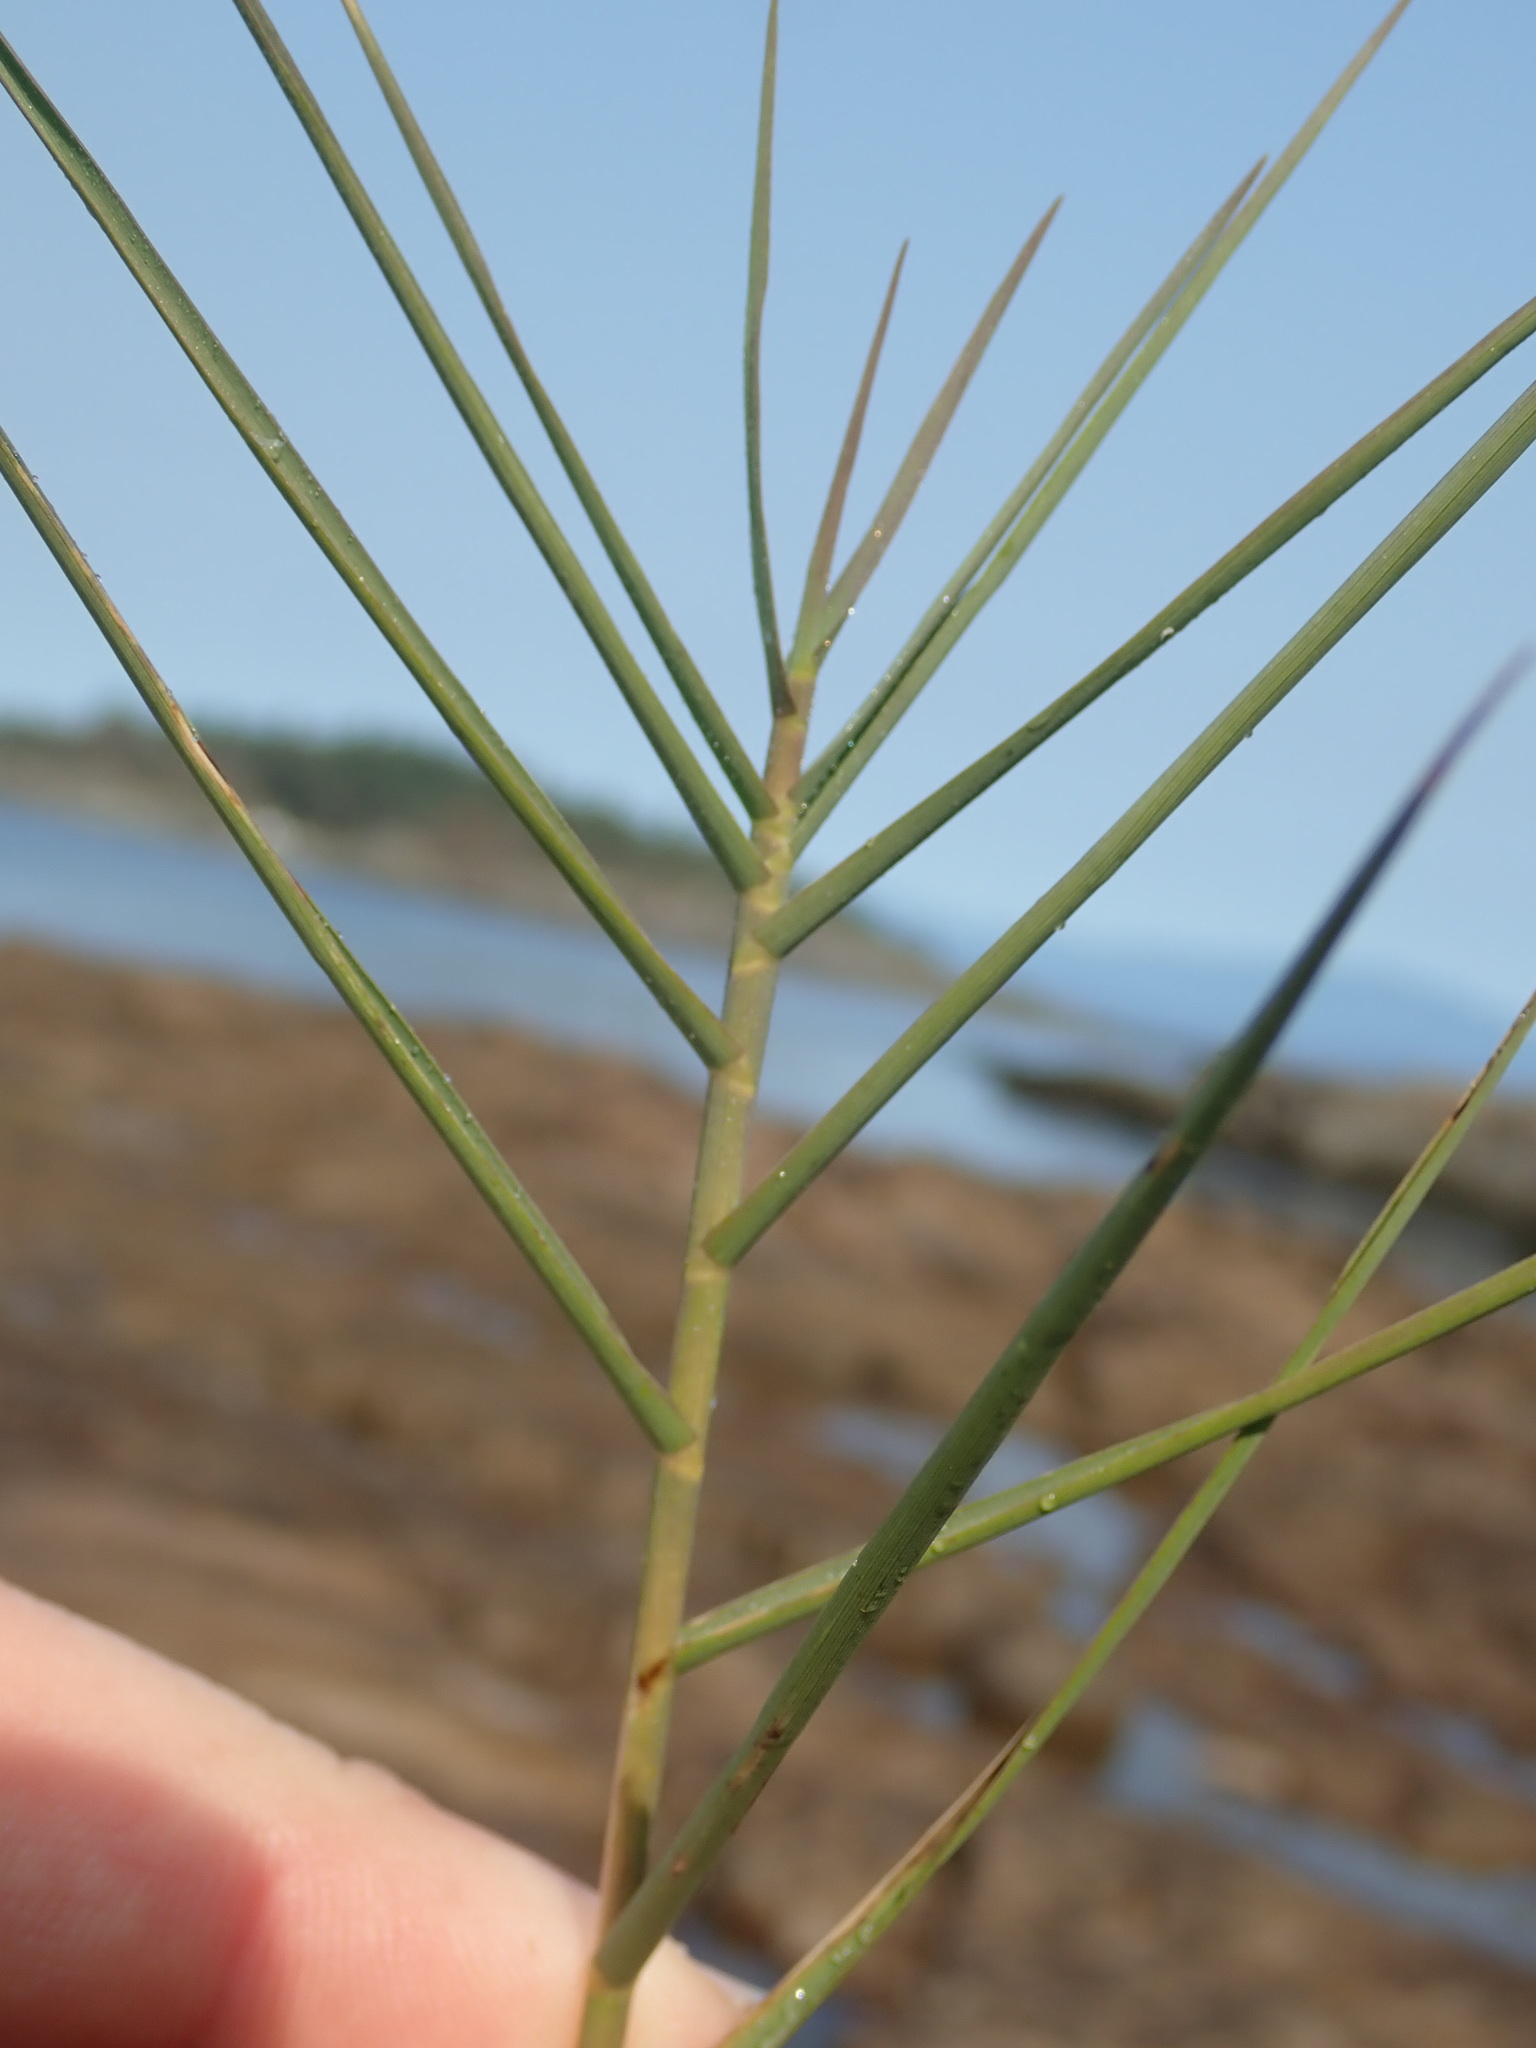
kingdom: Plantae
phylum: Tracheophyta
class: Liliopsida
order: Poales
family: Poaceae
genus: Distichlis
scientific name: Distichlis spicata
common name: Saltgrass
